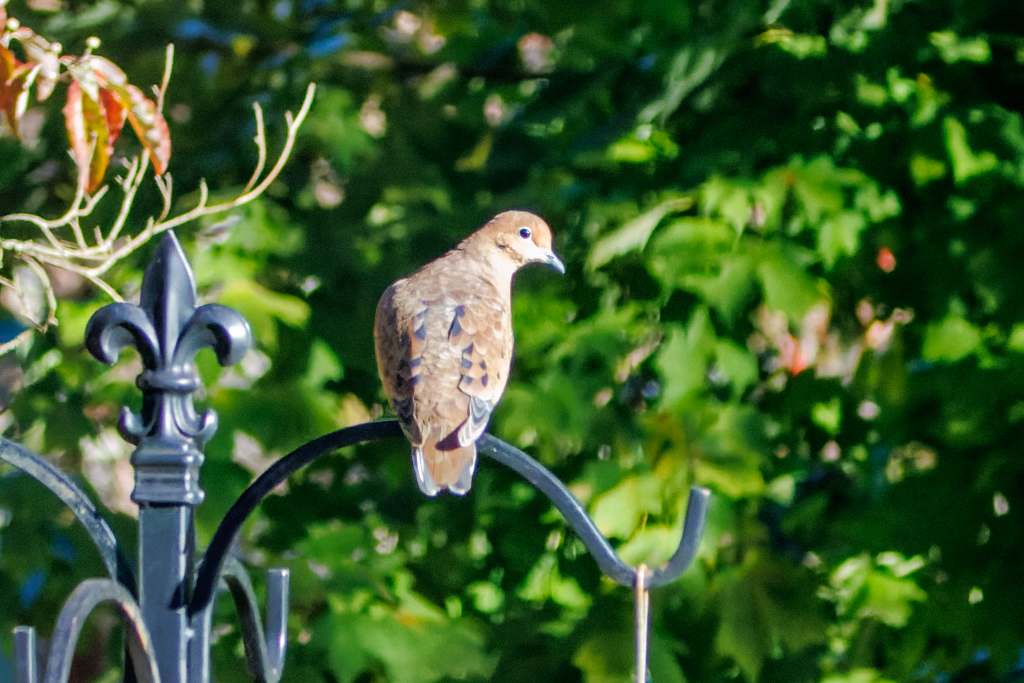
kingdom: Animalia
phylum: Chordata
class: Aves
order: Columbiformes
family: Columbidae
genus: Zenaida
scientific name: Zenaida macroura
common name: Mourning dove
